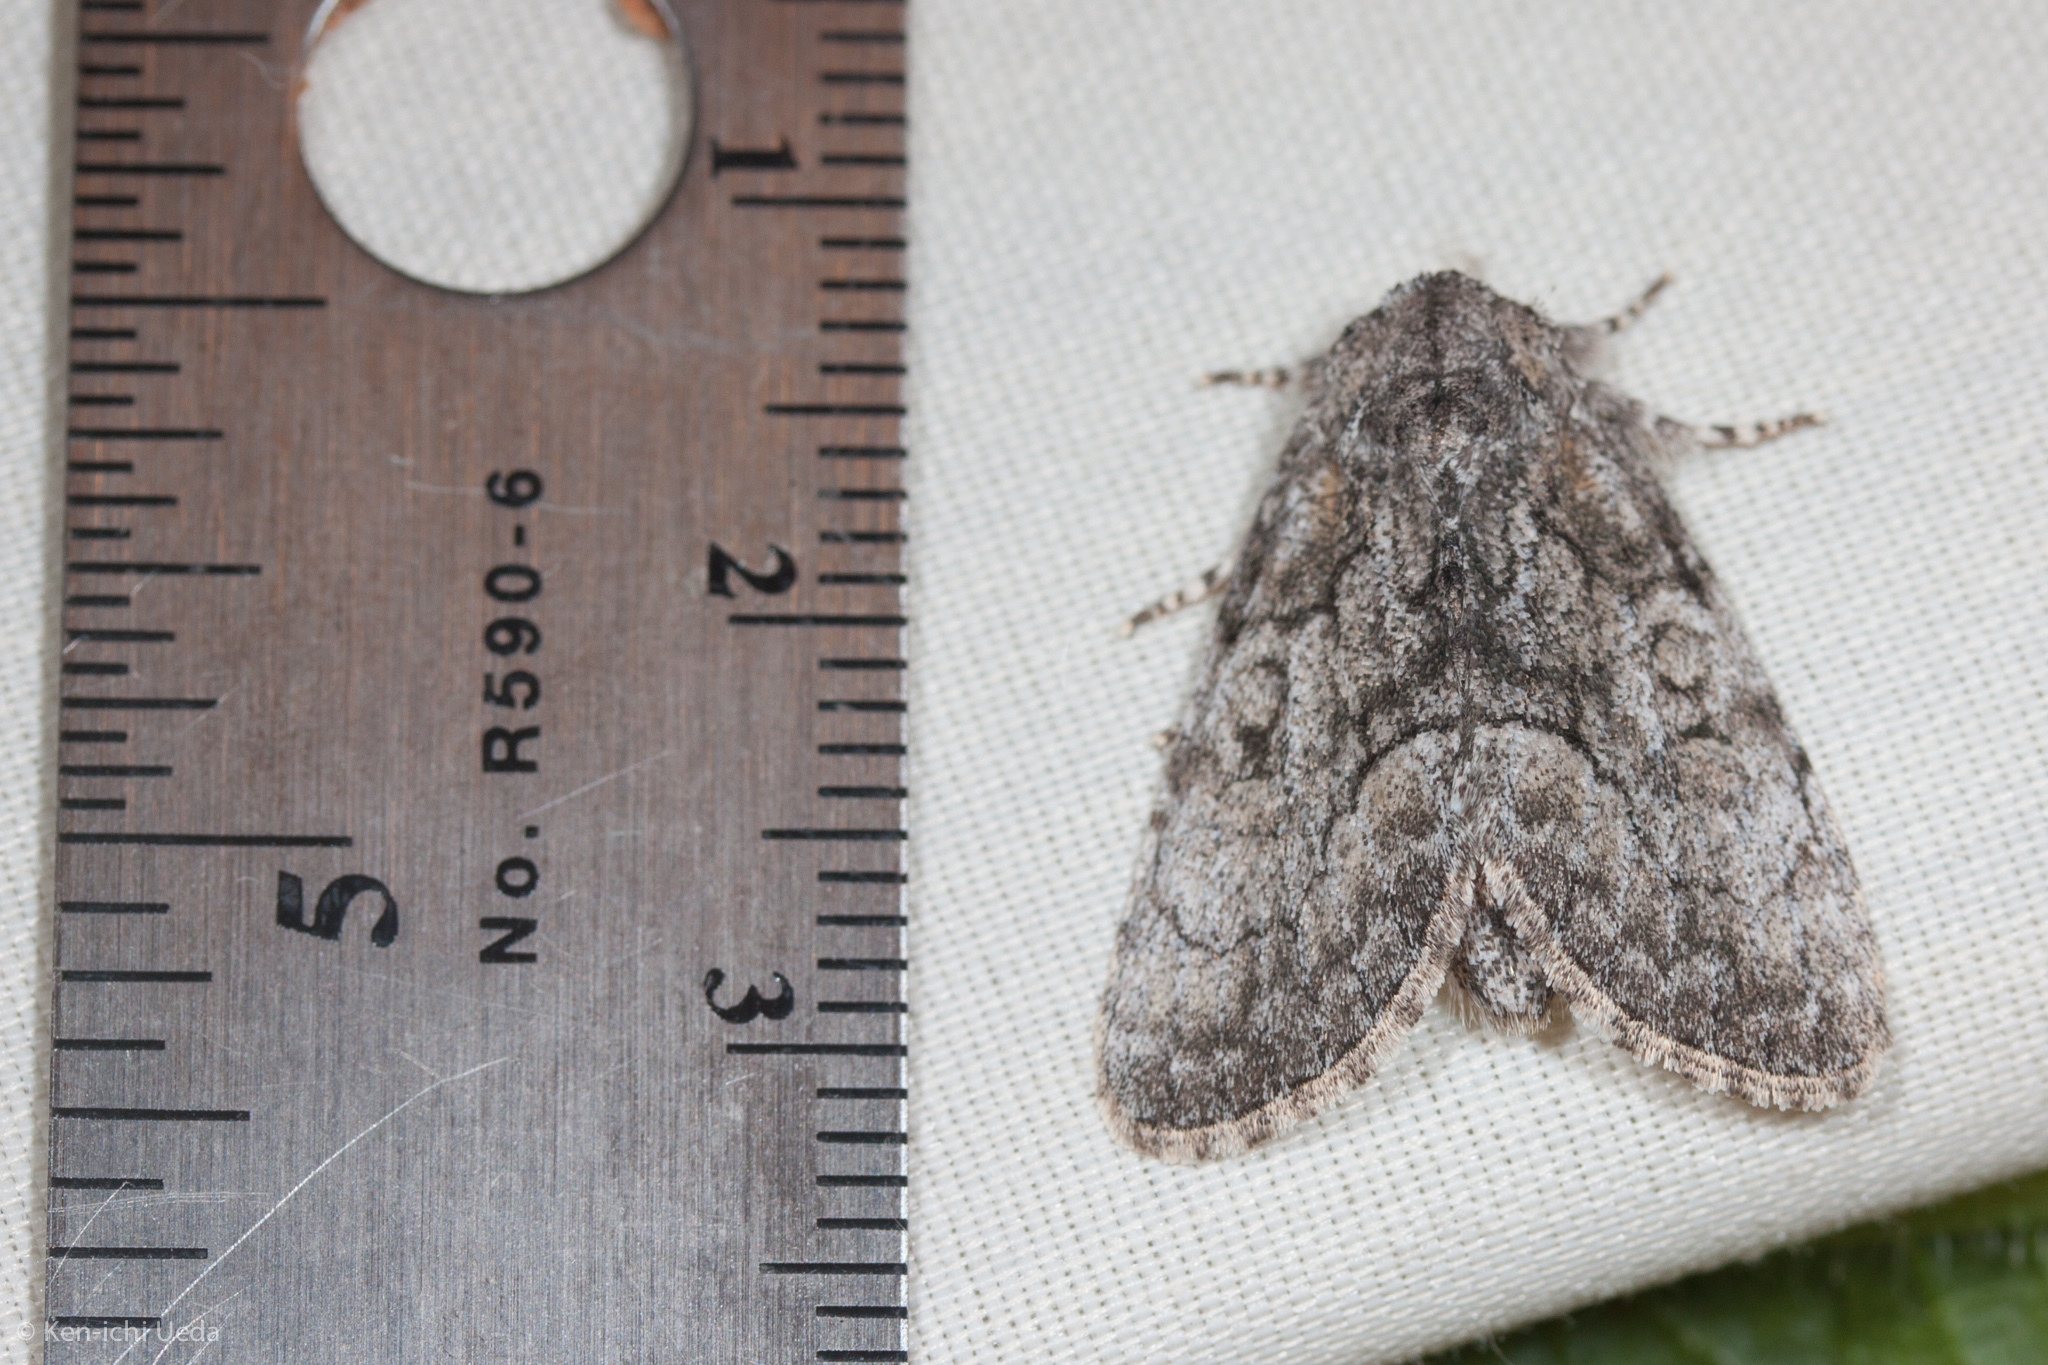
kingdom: Animalia
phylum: Arthropoda
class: Insecta
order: Lepidoptera
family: Noctuidae
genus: Raphia
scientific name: Raphia frater
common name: Brother
